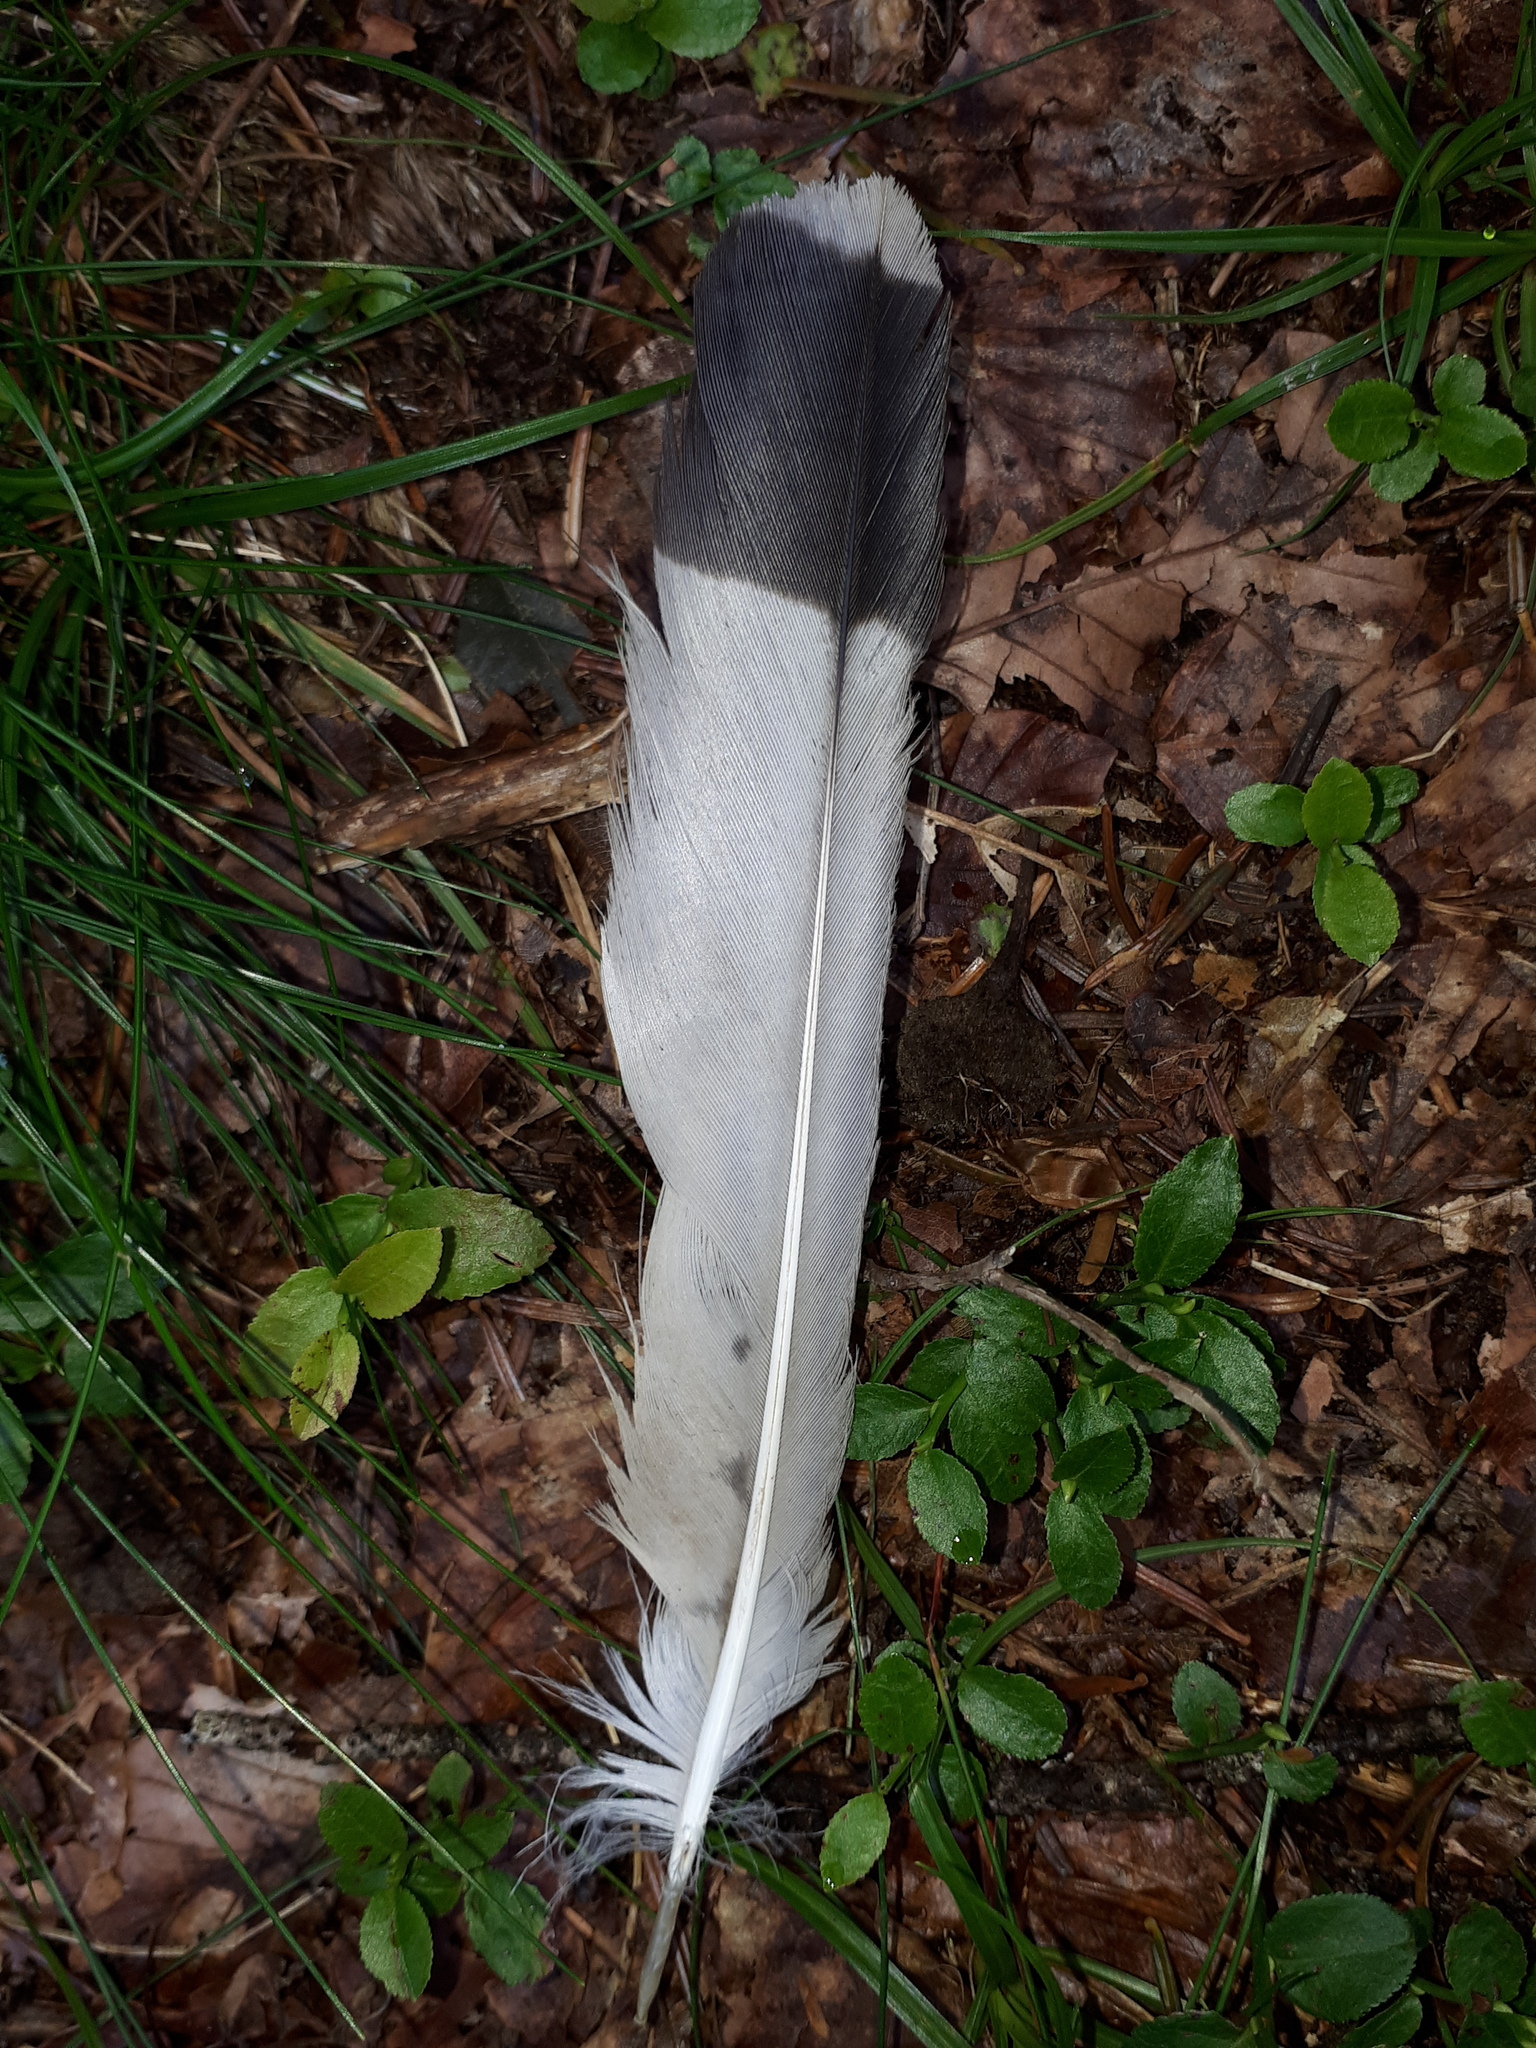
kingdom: Animalia
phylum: Chordata
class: Aves
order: Falconiformes
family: Falconidae
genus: Falco
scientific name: Falco tinnunculus
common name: Common kestrel
